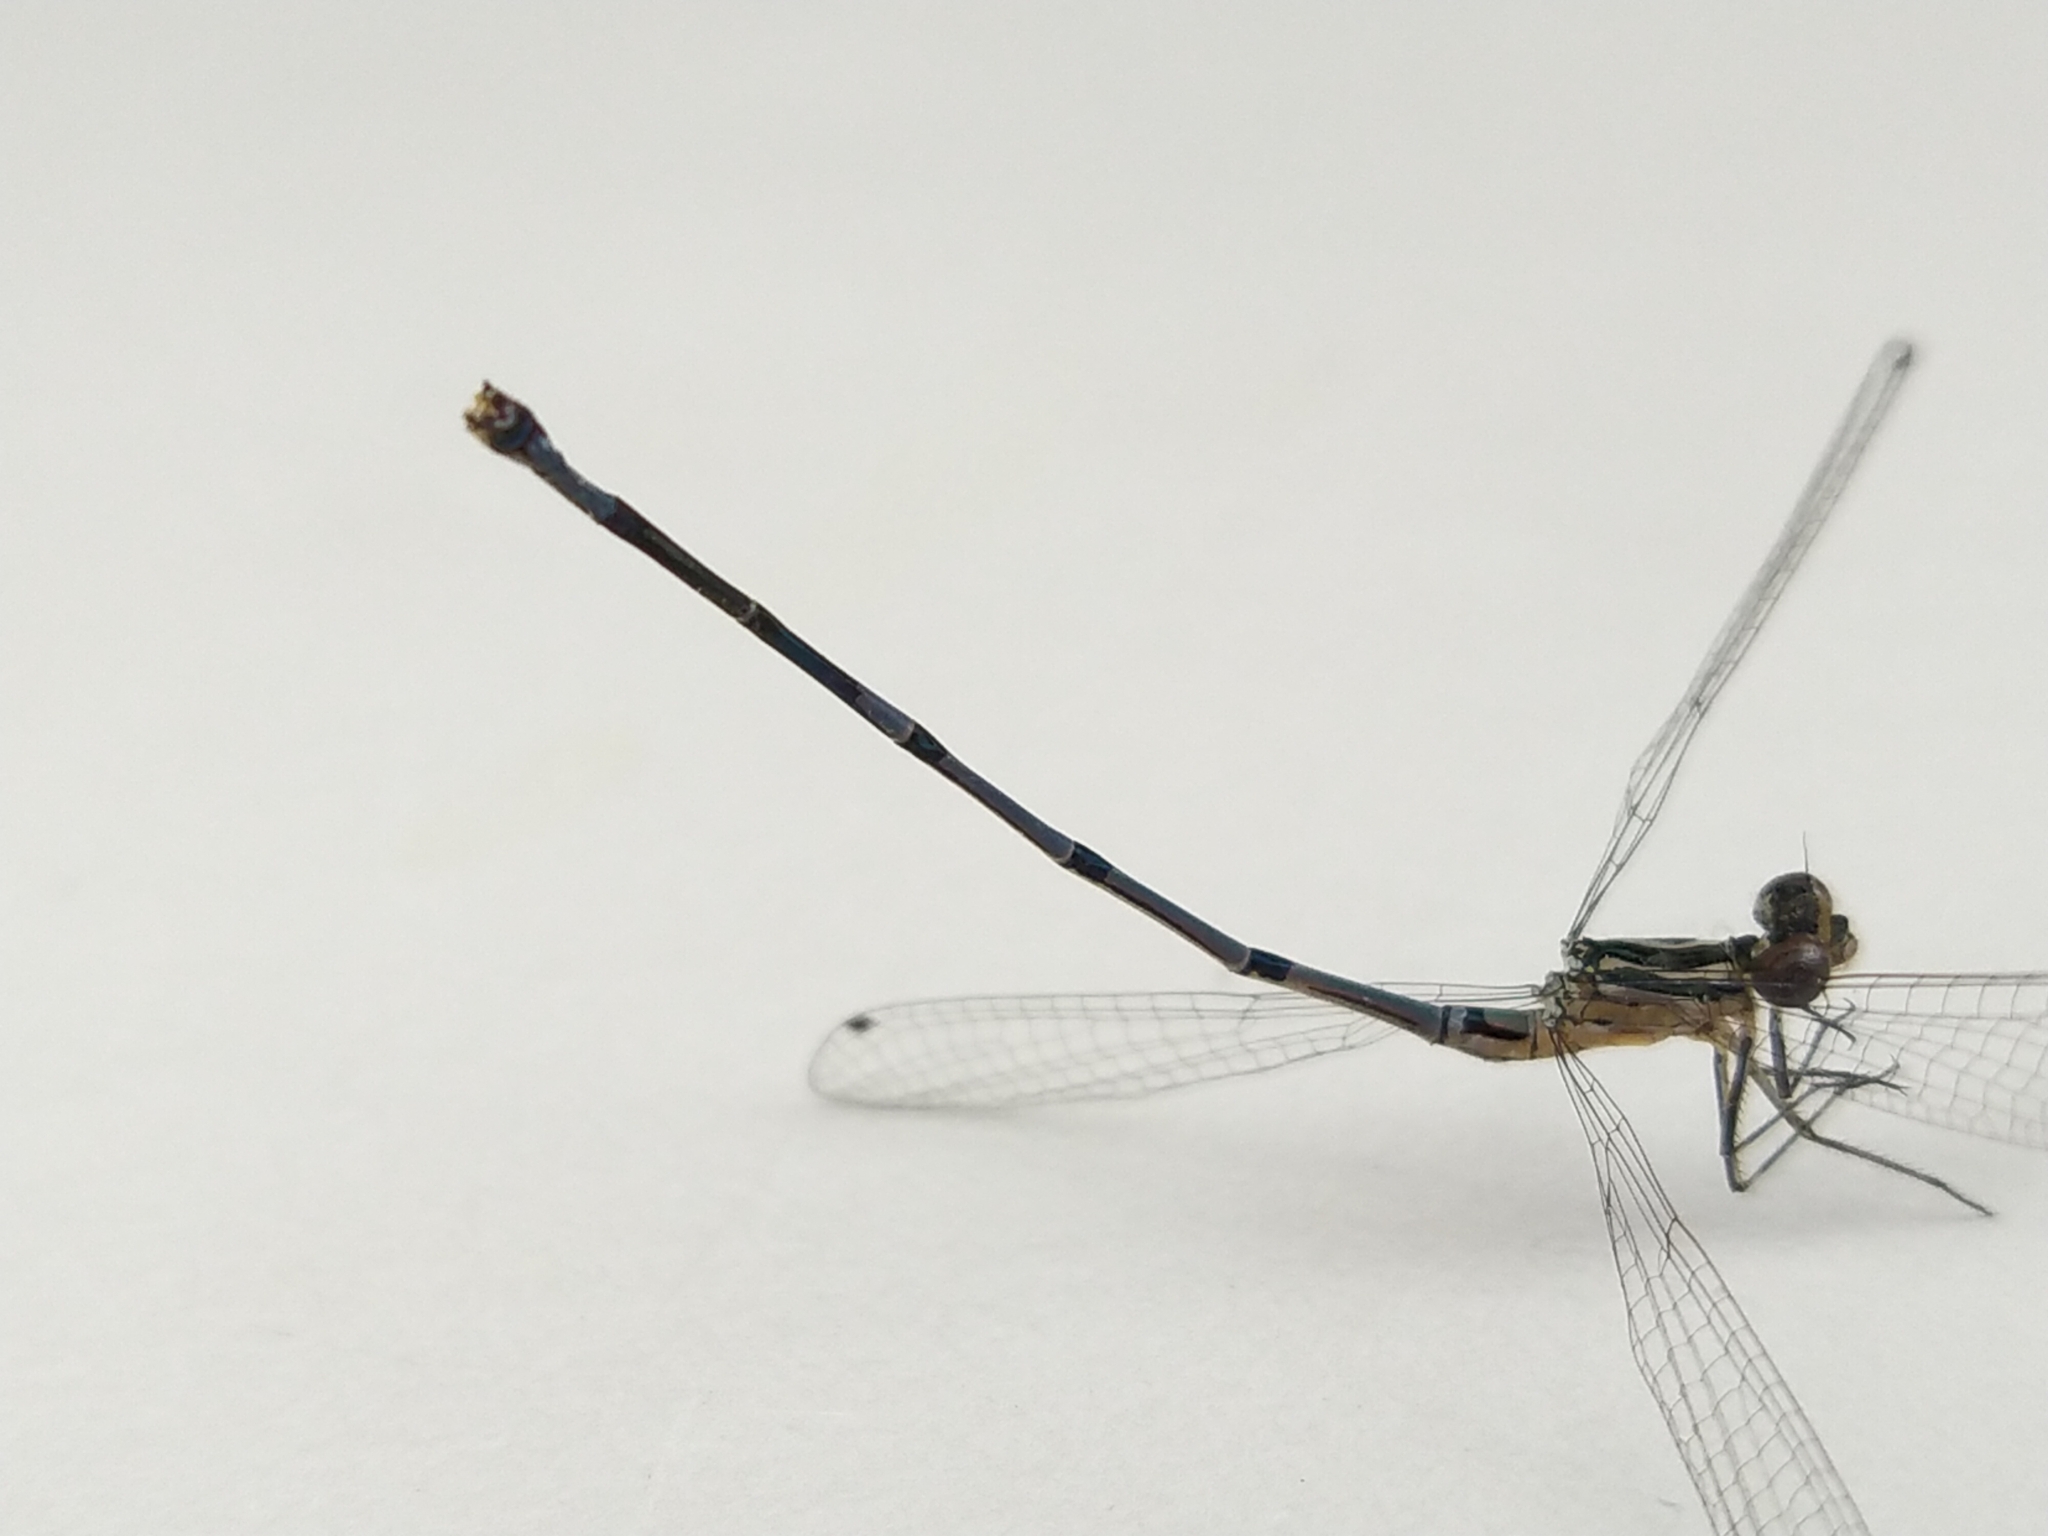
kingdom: Animalia
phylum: Arthropoda
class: Insecta
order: Odonata
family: Coenagrionidae
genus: Coenagrion
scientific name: Coenagrion puella
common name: Azure damselfly
